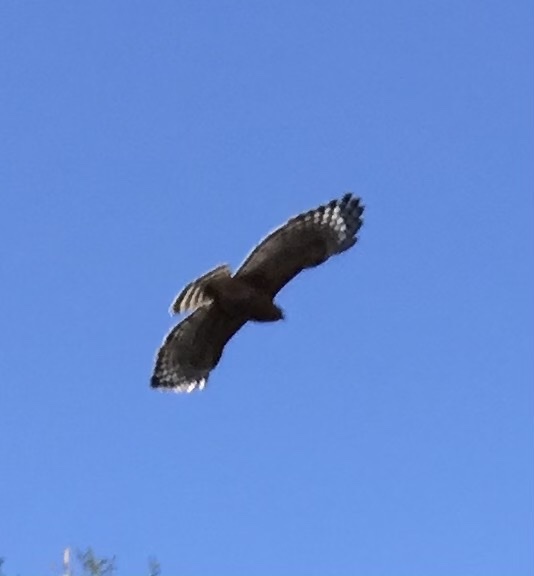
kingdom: Animalia
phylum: Chordata
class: Aves
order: Accipitriformes
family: Accipitridae
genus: Buteo
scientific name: Buteo lineatus
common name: Red-shouldered hawk
